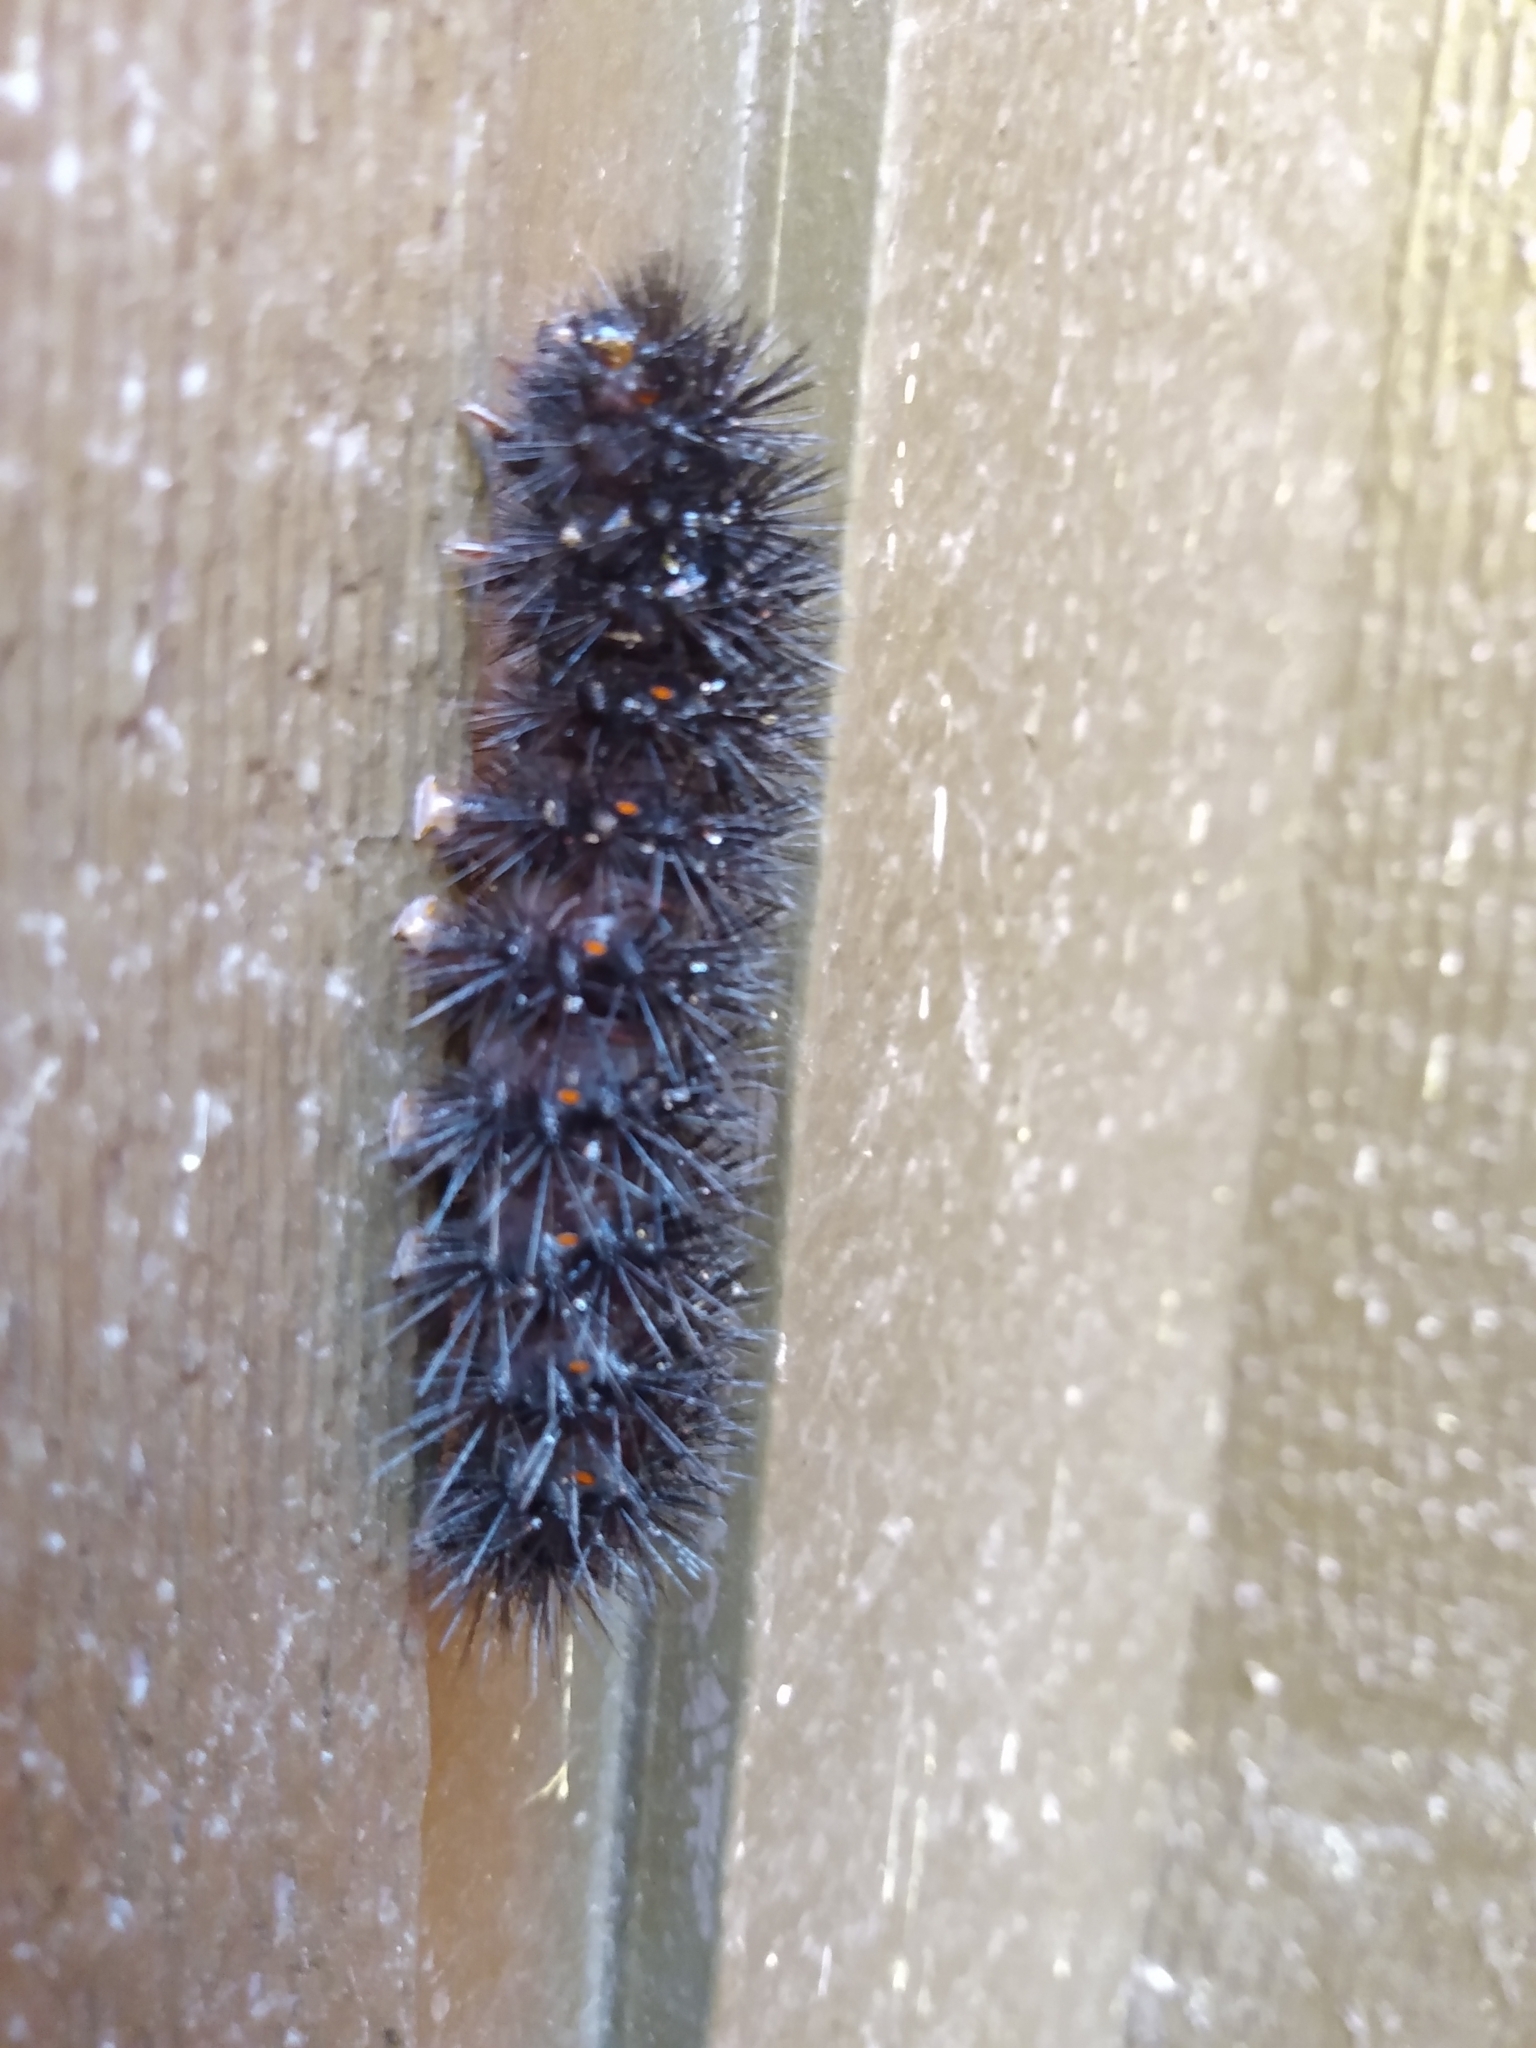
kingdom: Animalia
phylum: Arthropoda
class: Insecta
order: Lepidoptera
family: Erebidae
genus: Hypercompe
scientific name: Hypercompe scribonia
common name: Giant leopard moth
